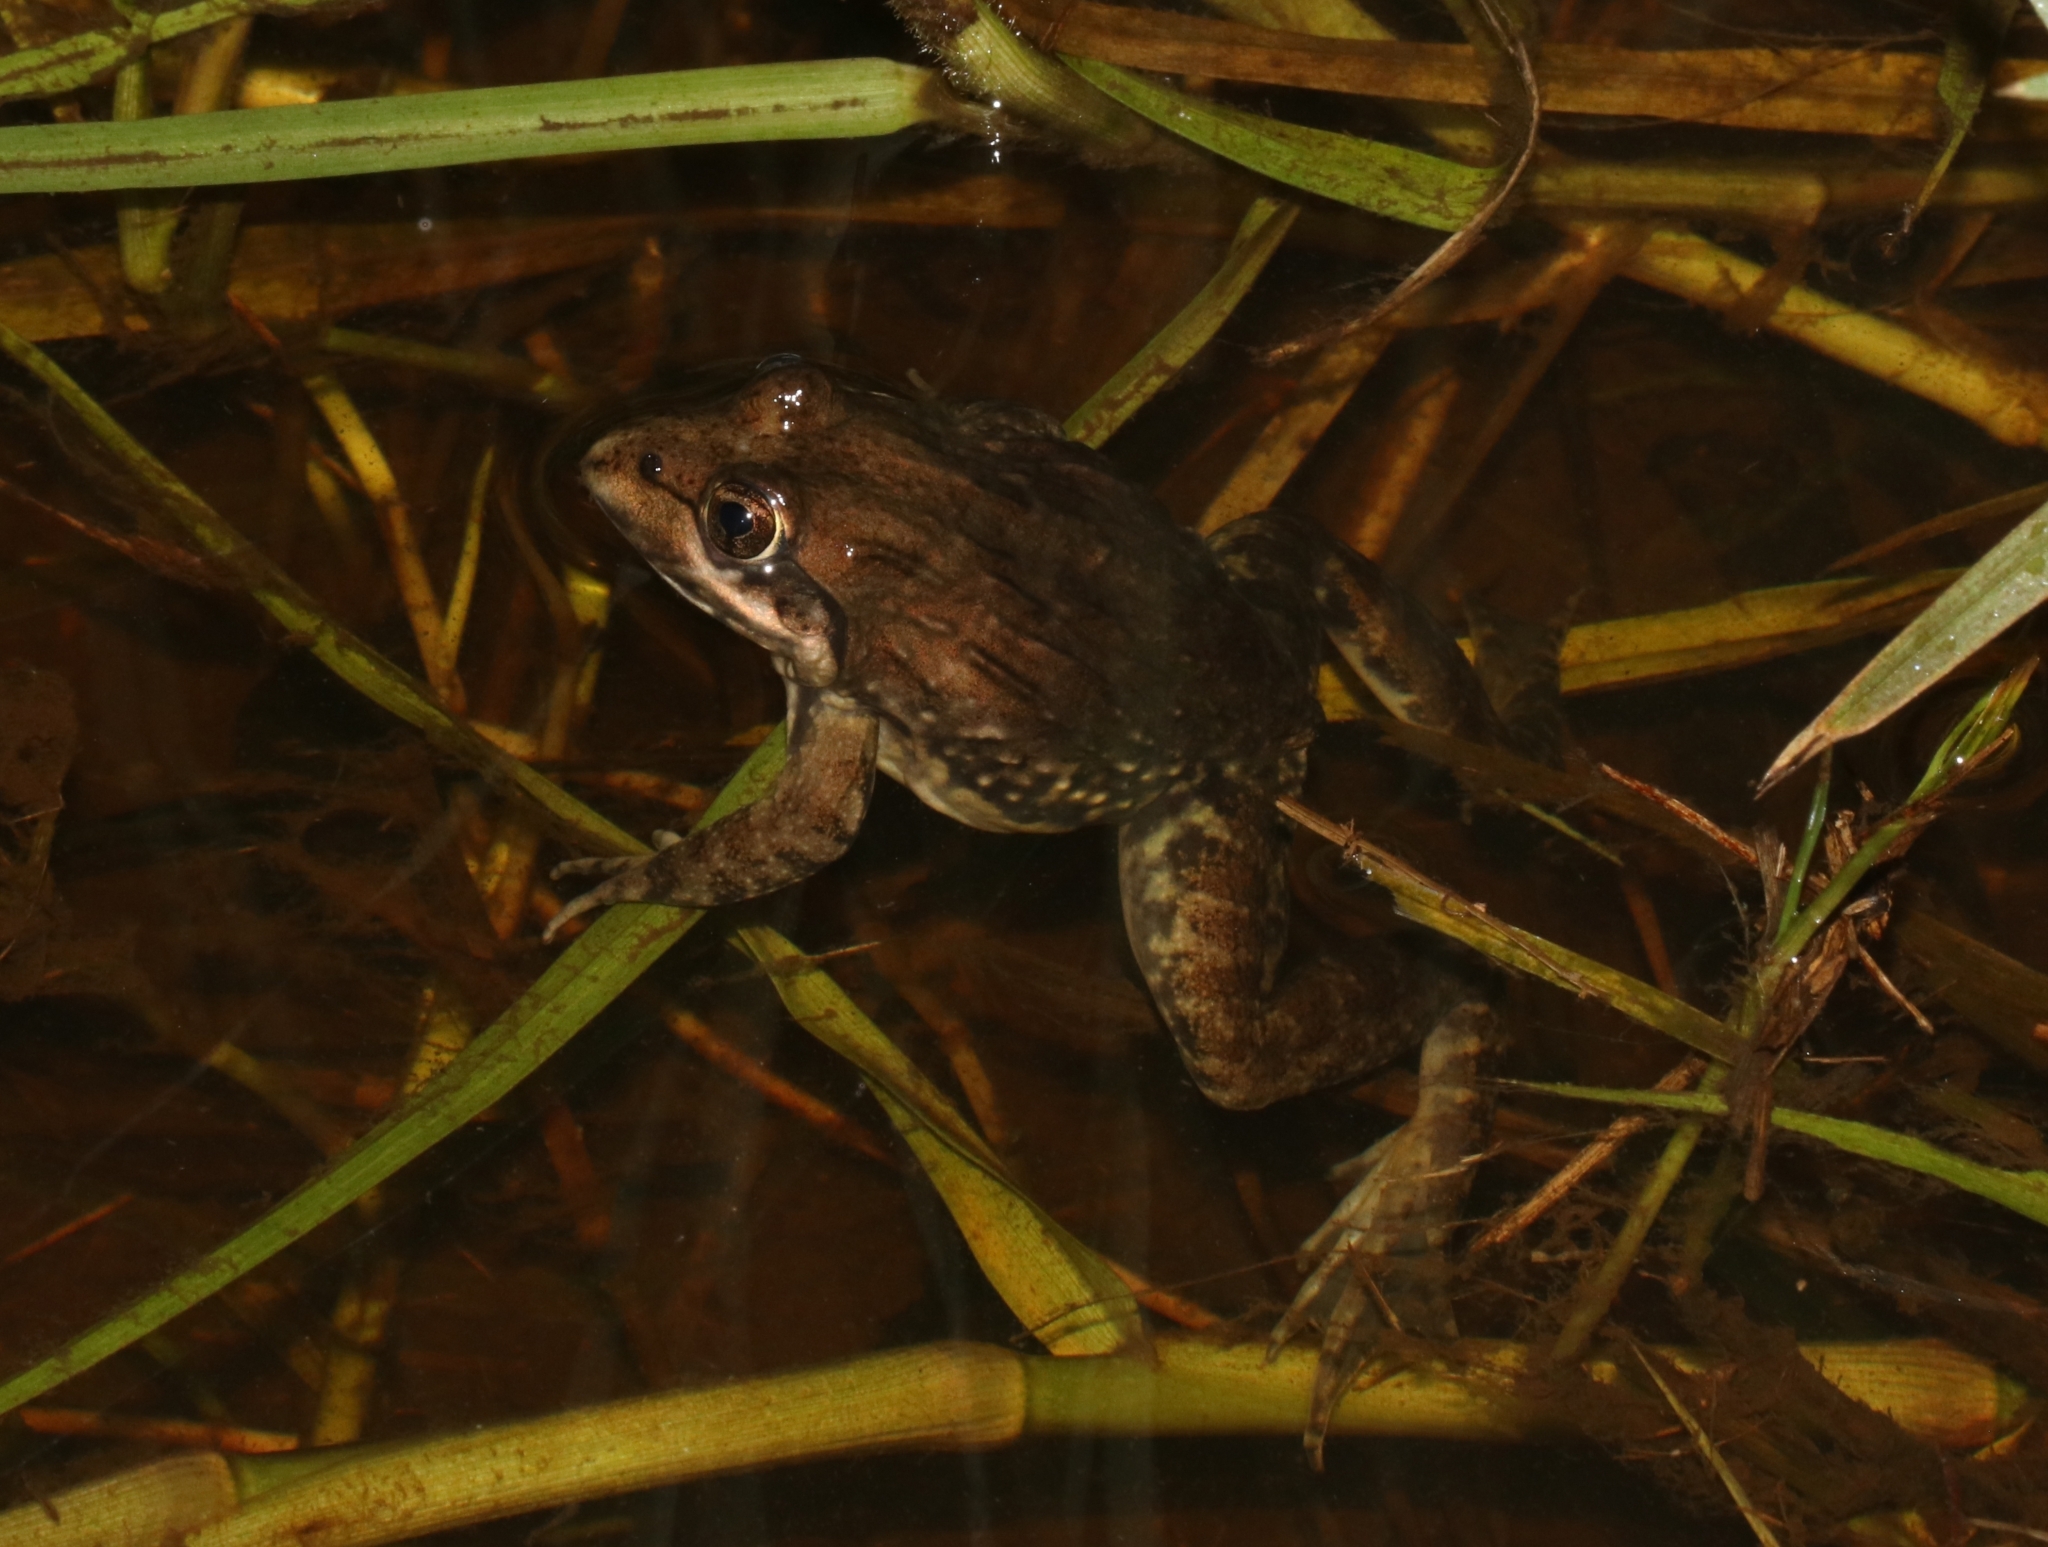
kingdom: Animalia
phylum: Chordata
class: Amphibia
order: Anura
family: Pyxicephalidae
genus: Amietia
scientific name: Amietia fuscigula
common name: Cape rana
